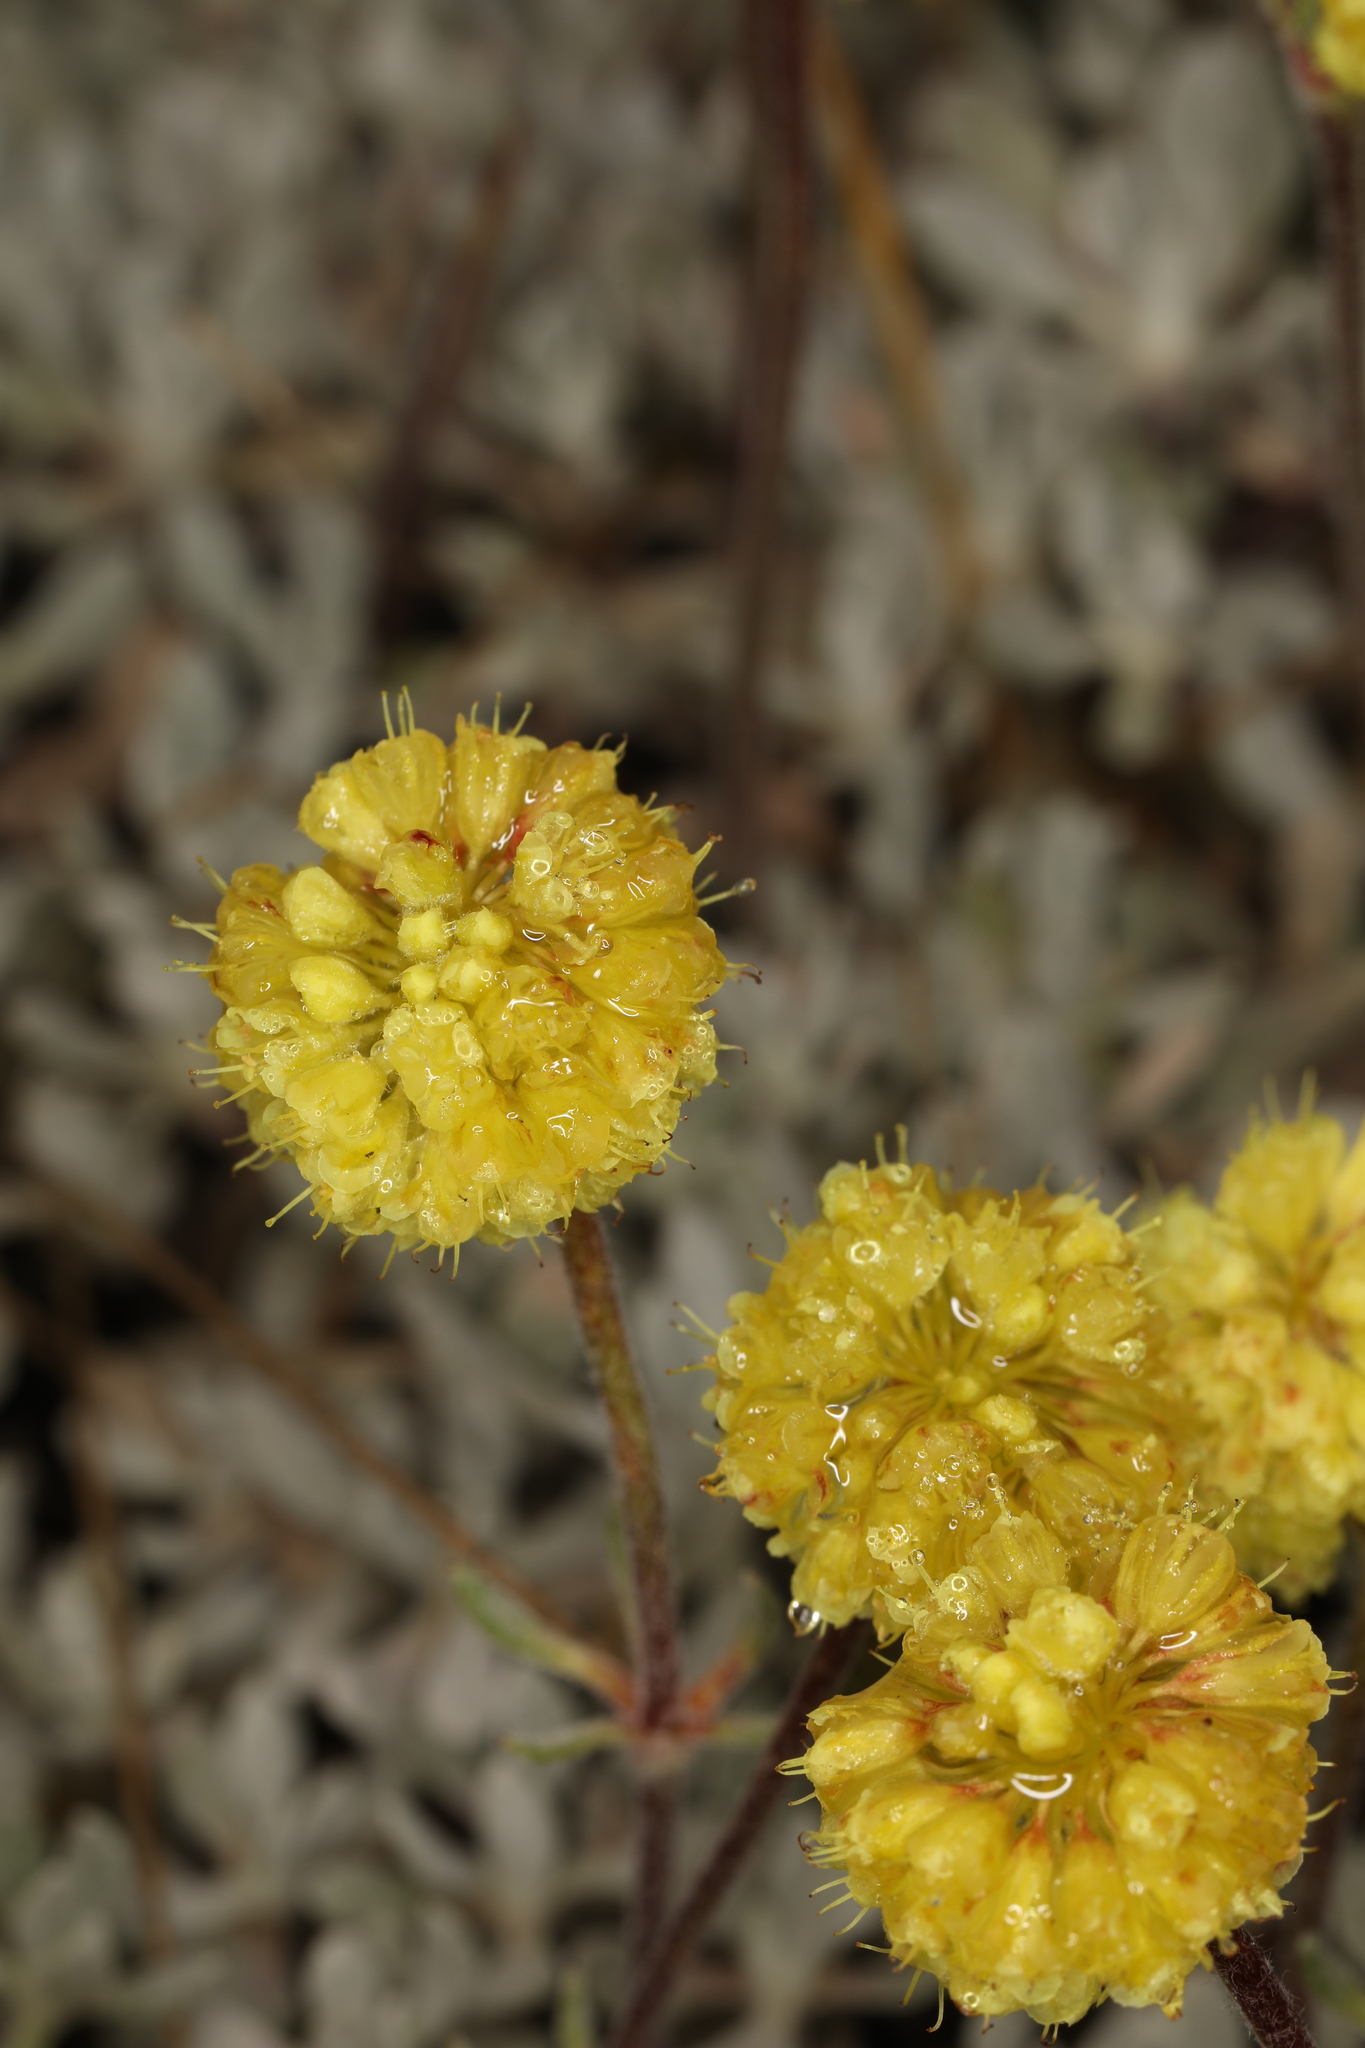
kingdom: Plantae
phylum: Tracheophyta
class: Magnoliopsida
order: Caryophyllales
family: Polygonaceae
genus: Eriogonum
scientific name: Eriogonum douglasii
